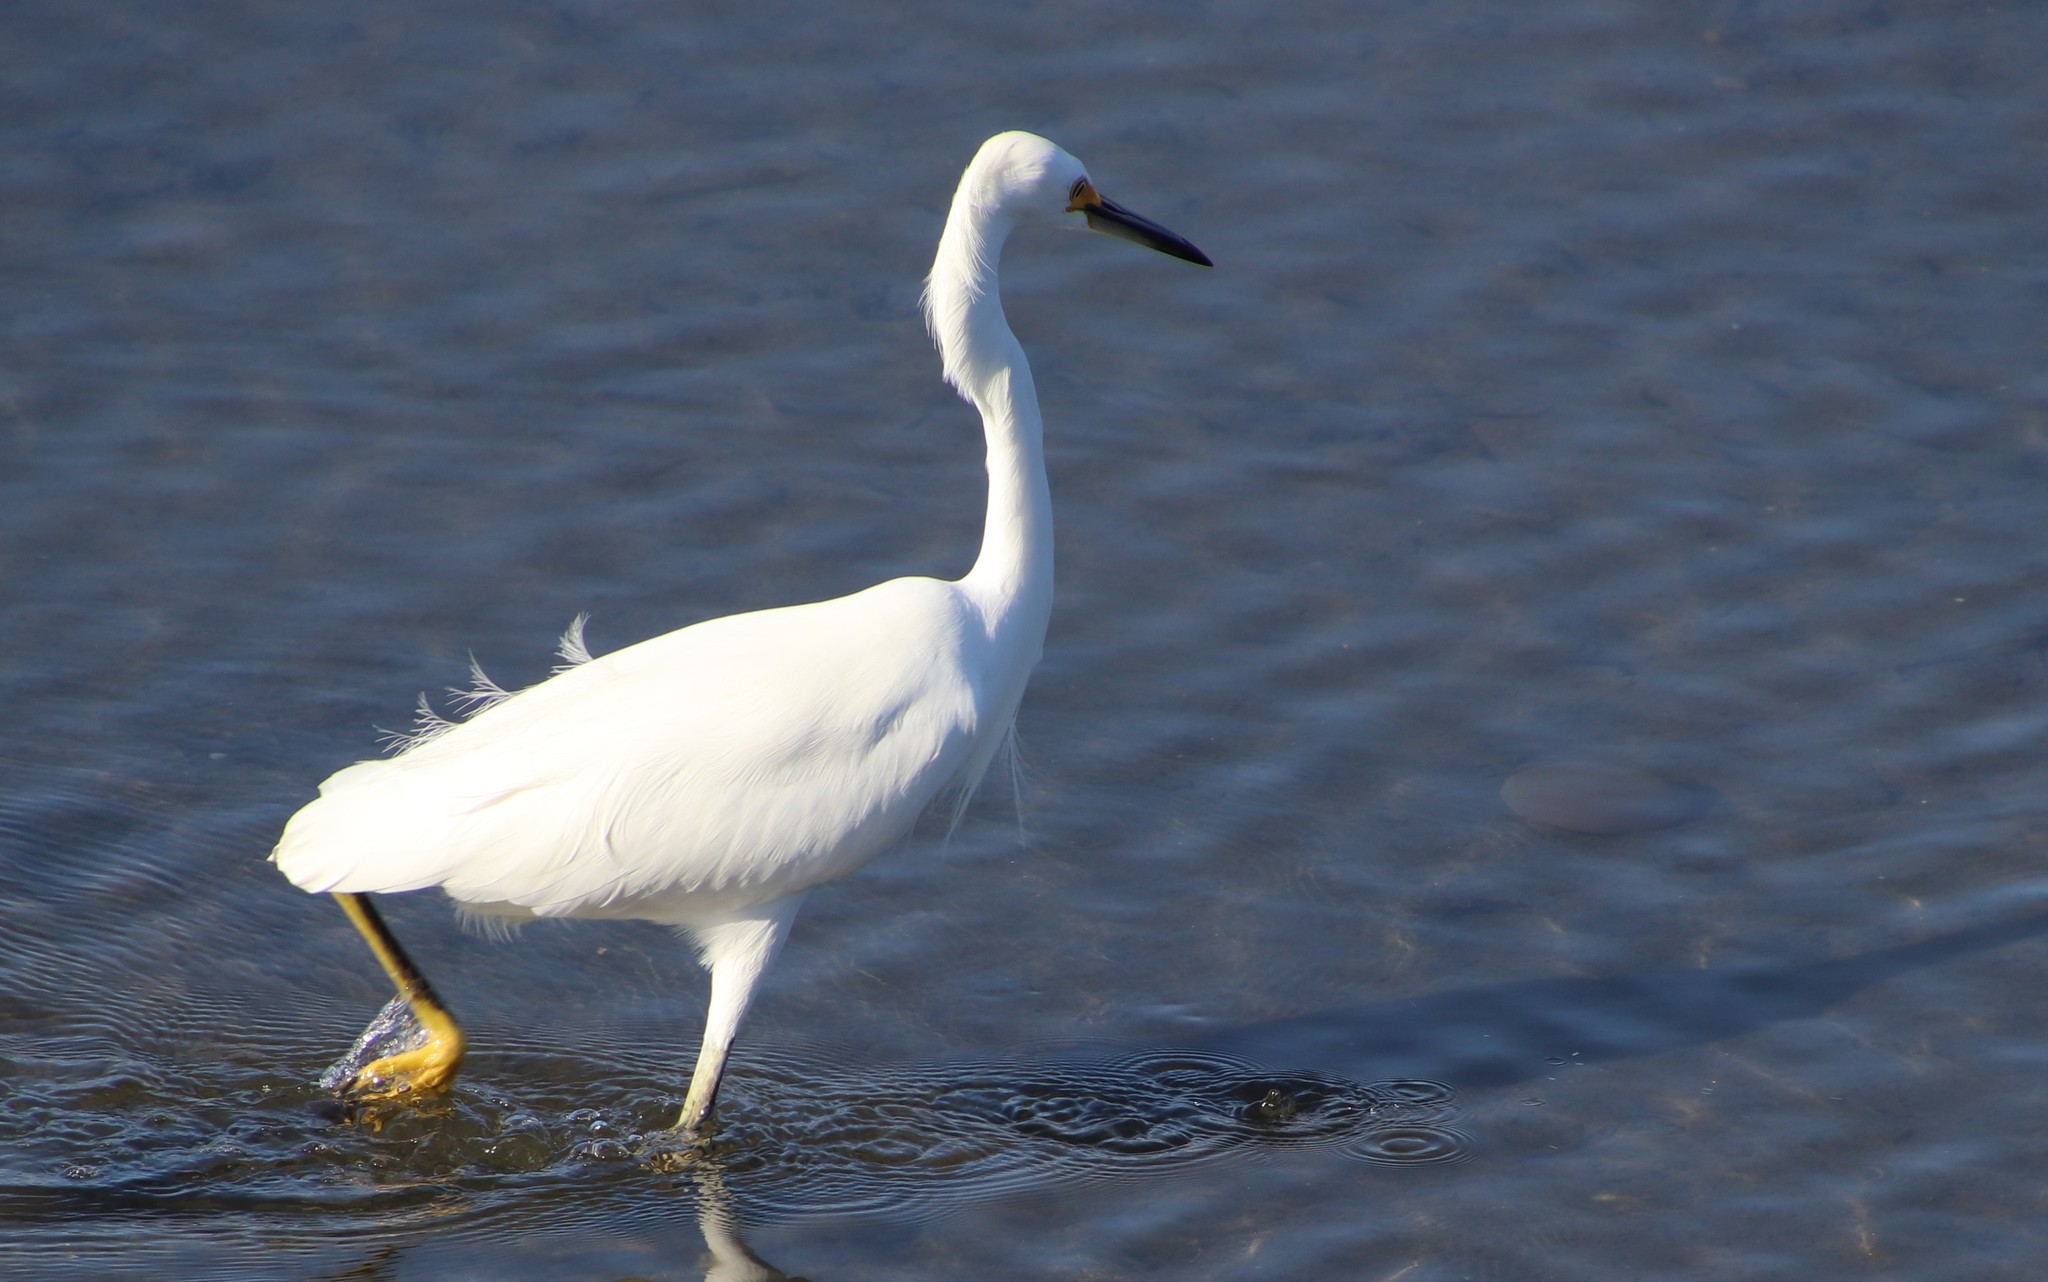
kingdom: Animalia
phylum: Chordata
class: Aves
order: Pelecaniformes
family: Ardeidae
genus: Egretta
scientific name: Egretta thula
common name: Snowy egret
